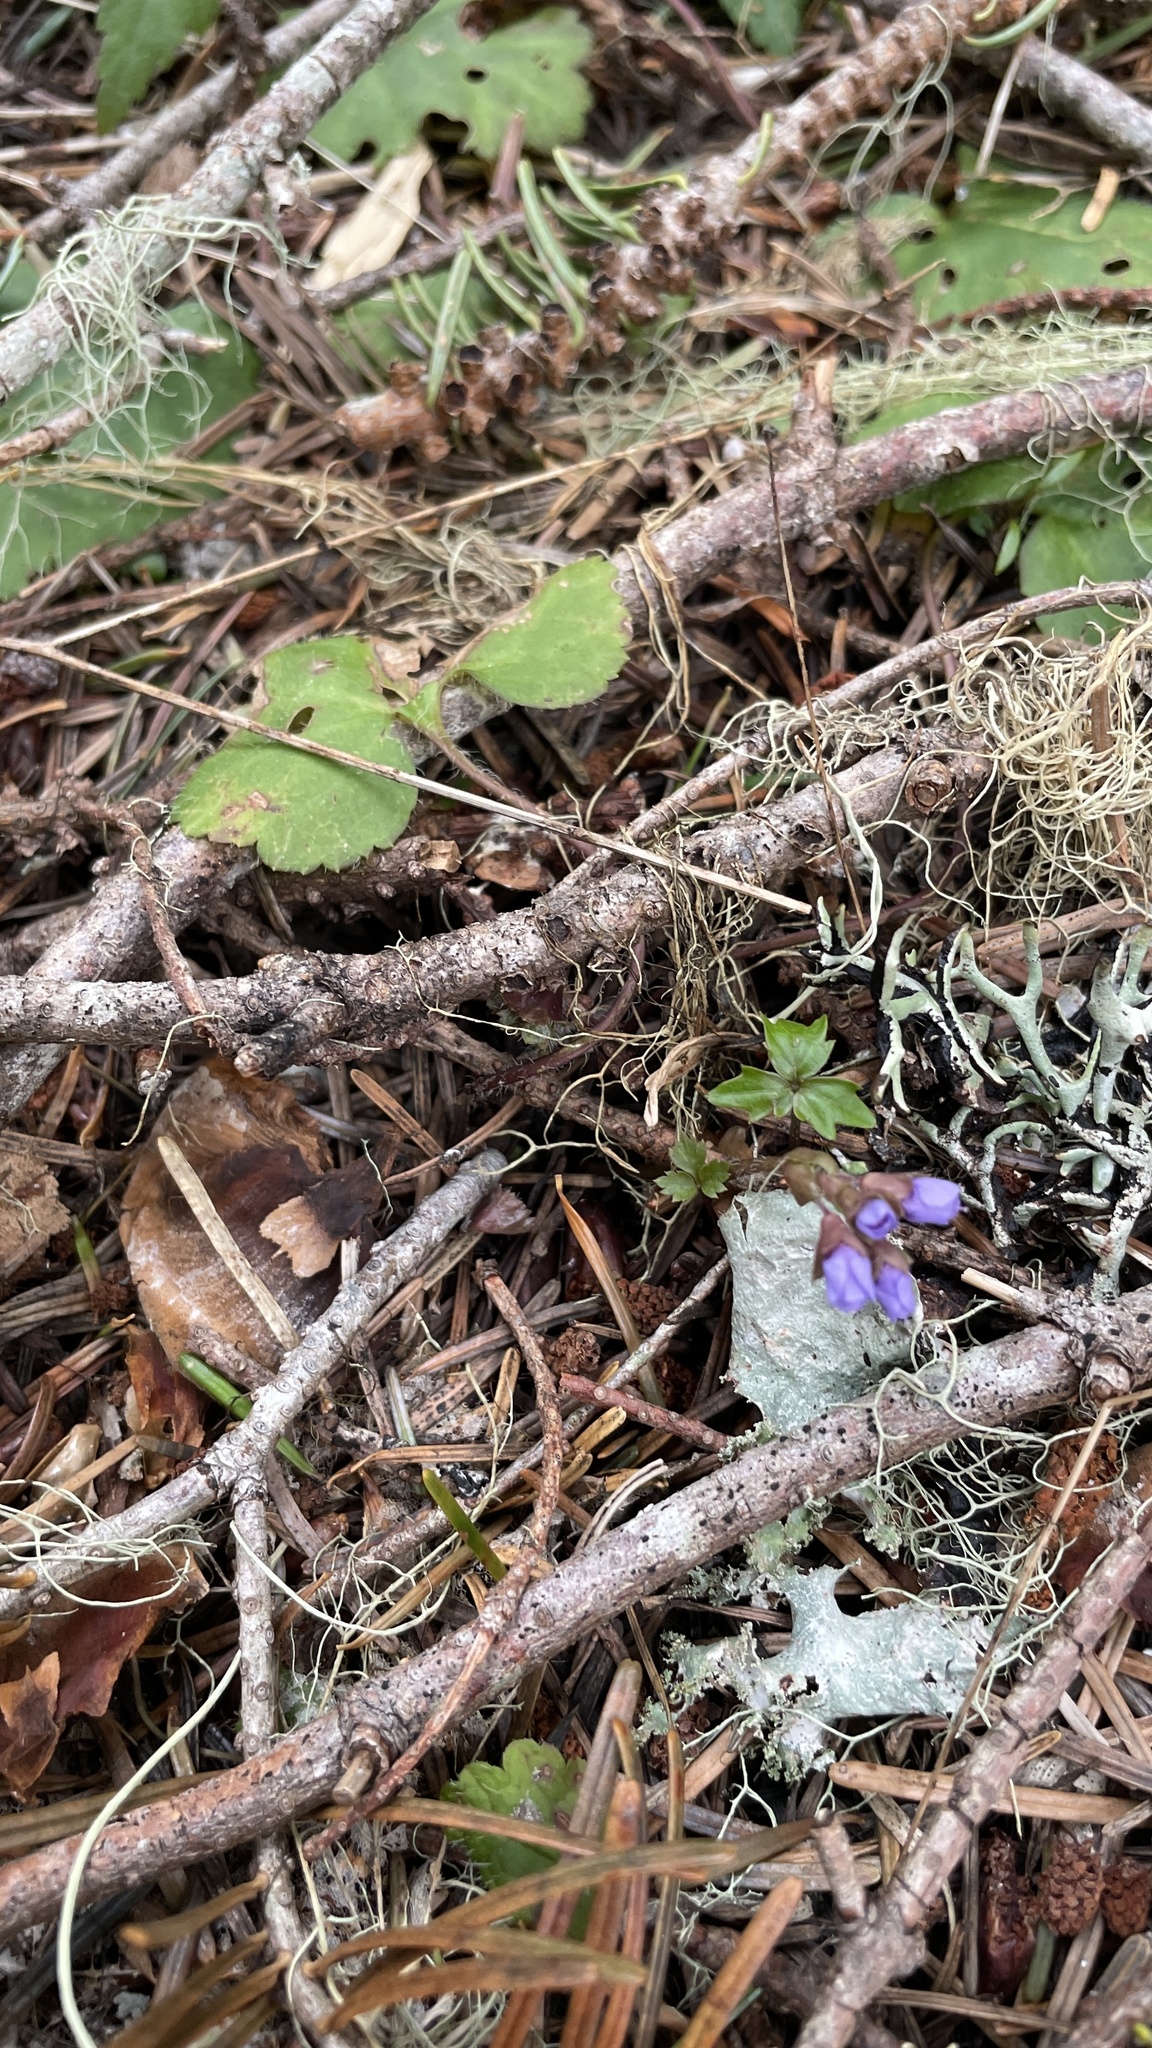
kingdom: Plantae
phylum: Tracheophyta
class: Magnoliopsida
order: Lamiales
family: Plantaginaceae
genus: Synthyris
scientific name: Synthyris reniformis
